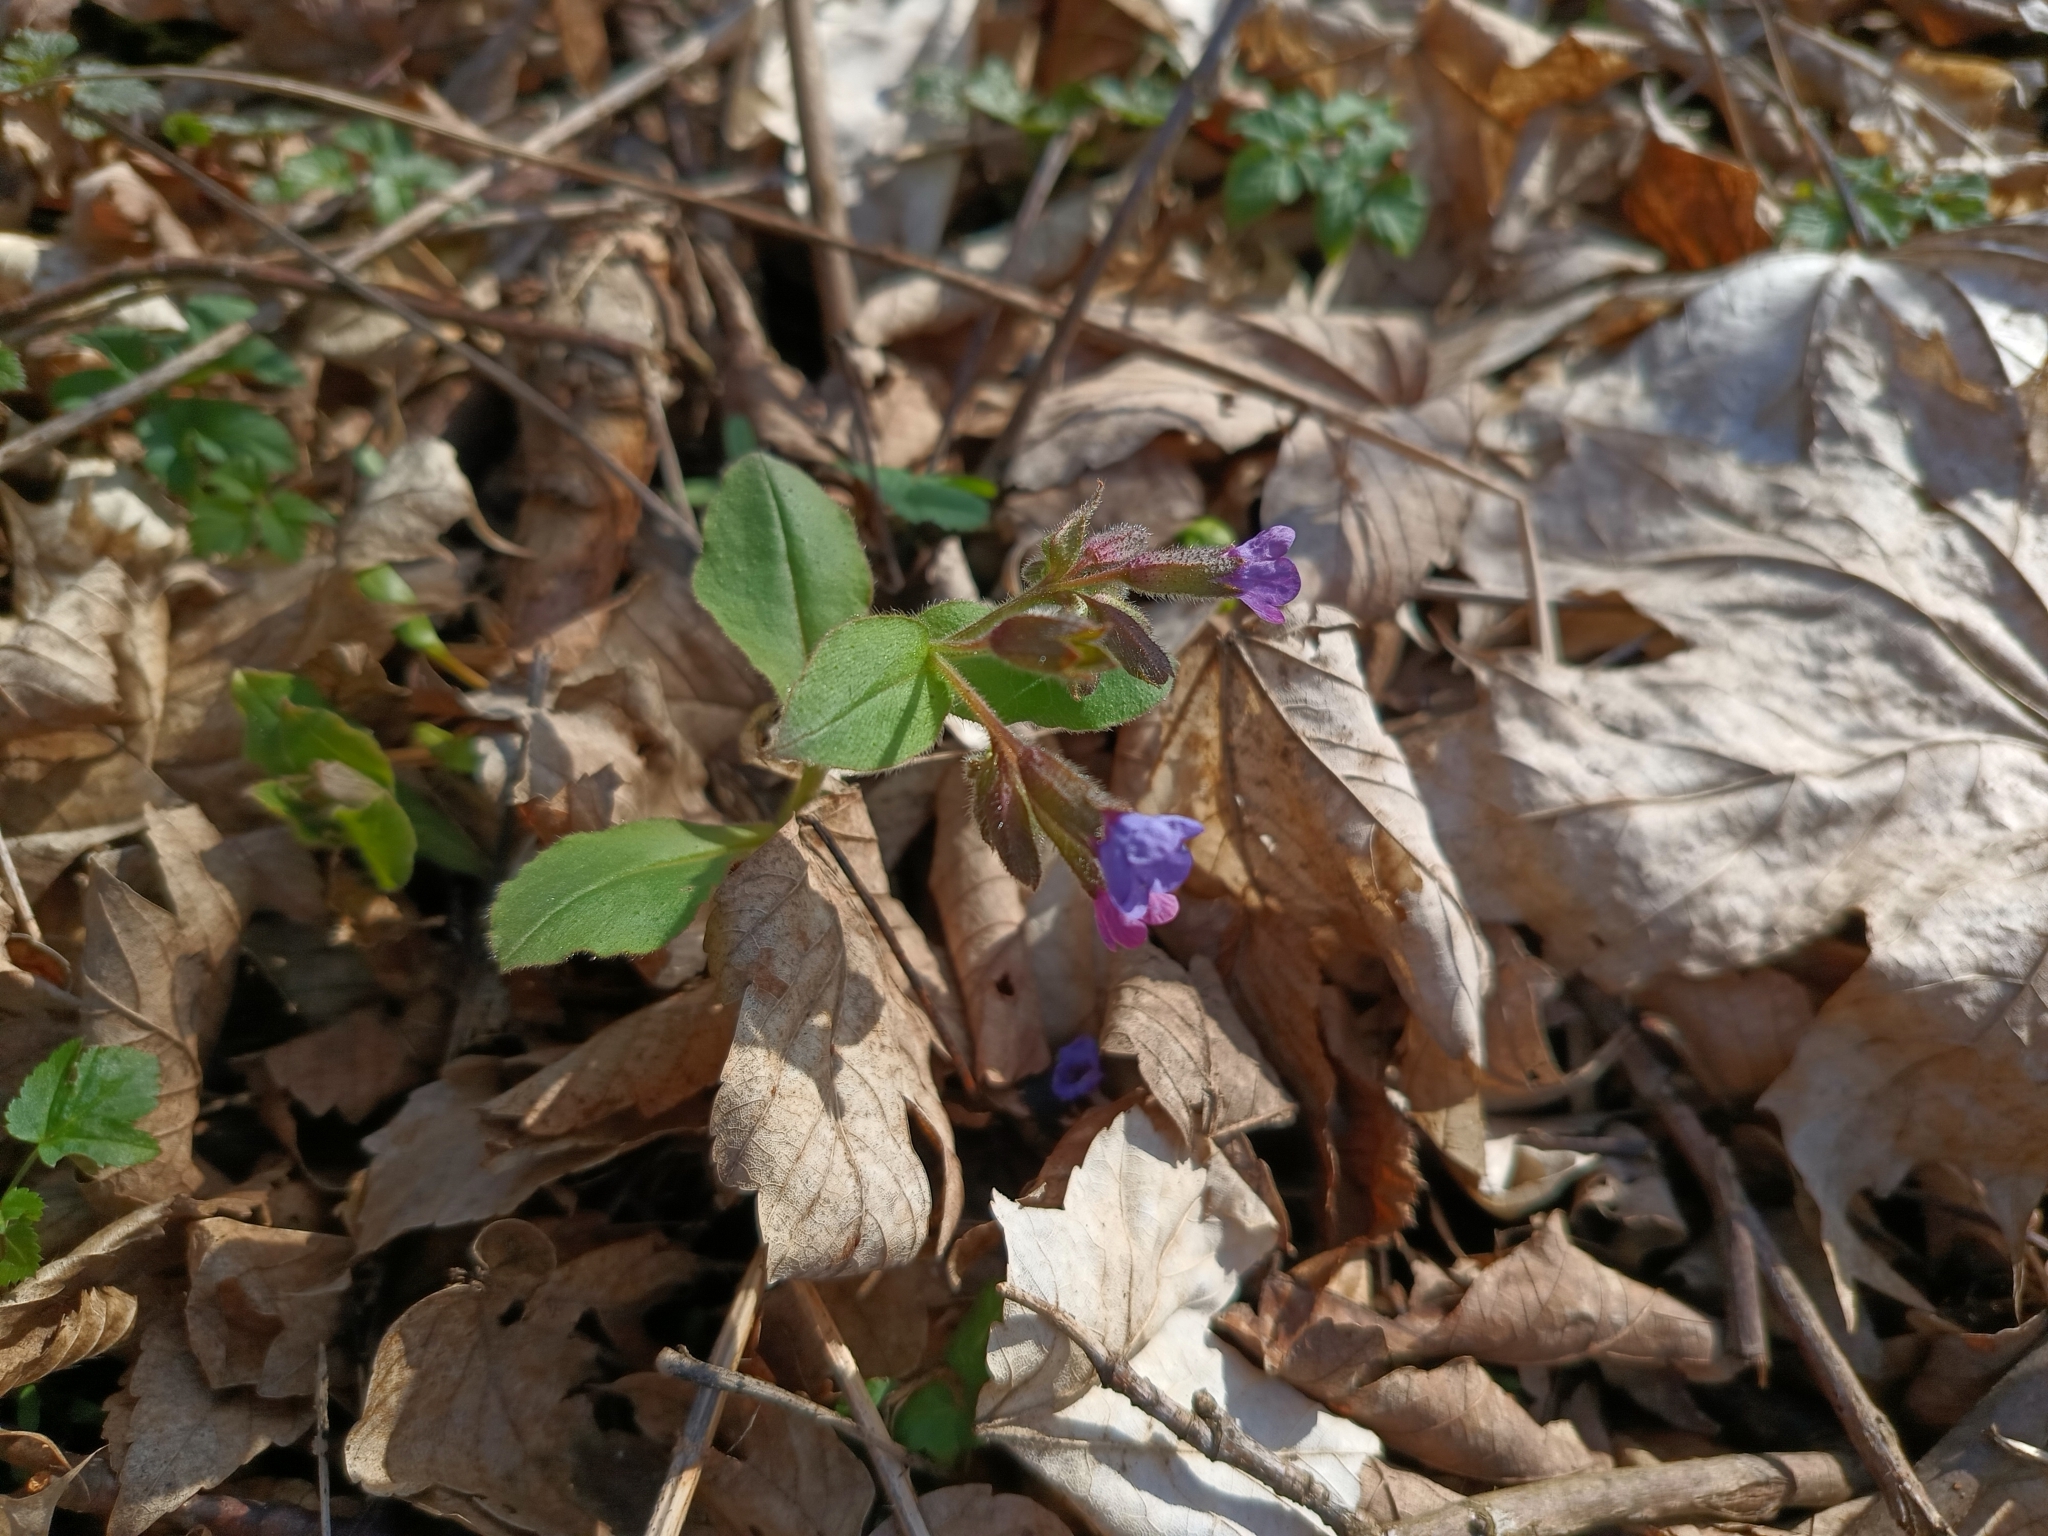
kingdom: Plantae
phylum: Tracheophyta
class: Magnoliopsida
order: Boraginales
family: Boraginaceae
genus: Pulmonaria
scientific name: Pulmonaria obscura
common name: Suffolk lungwort
